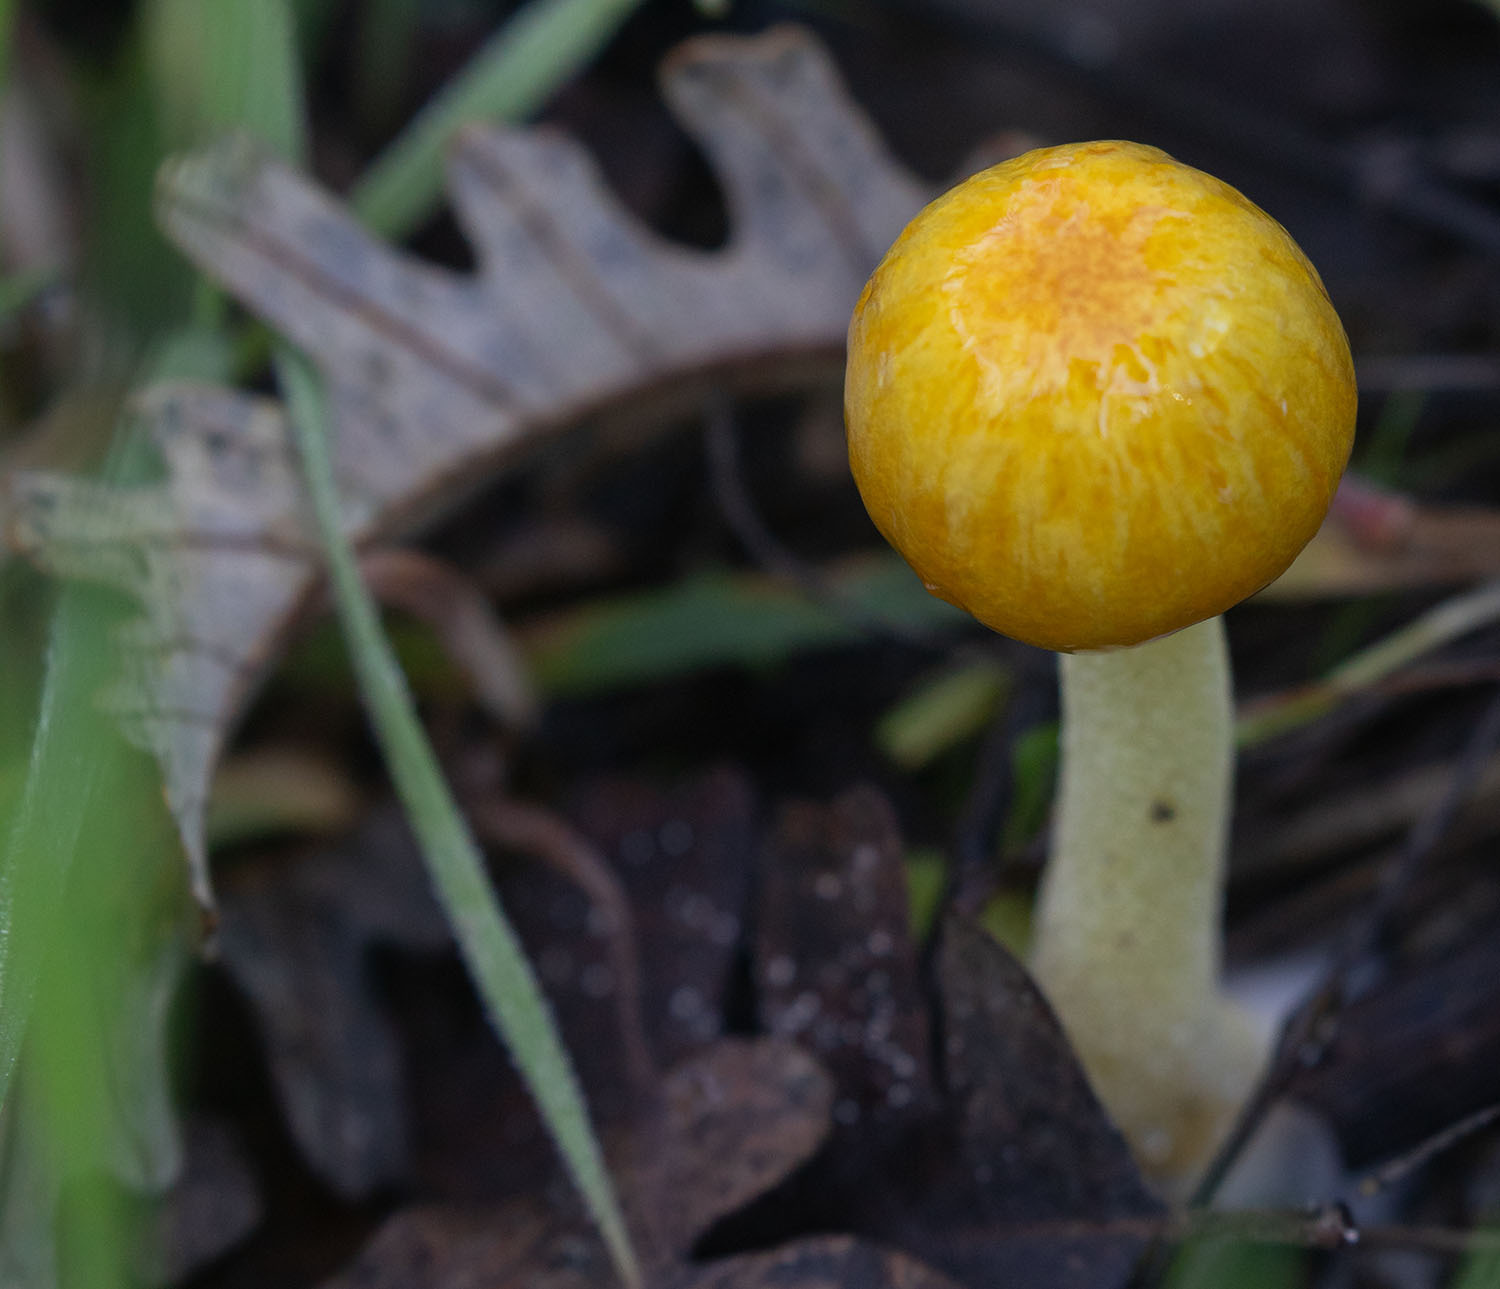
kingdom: Fungi
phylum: Basidiomycota
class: Agaricomycetes
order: Agaricales
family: Bolbitiaceae
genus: Bolbitius
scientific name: Bolbitius titubans
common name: Yellow fieldcap
